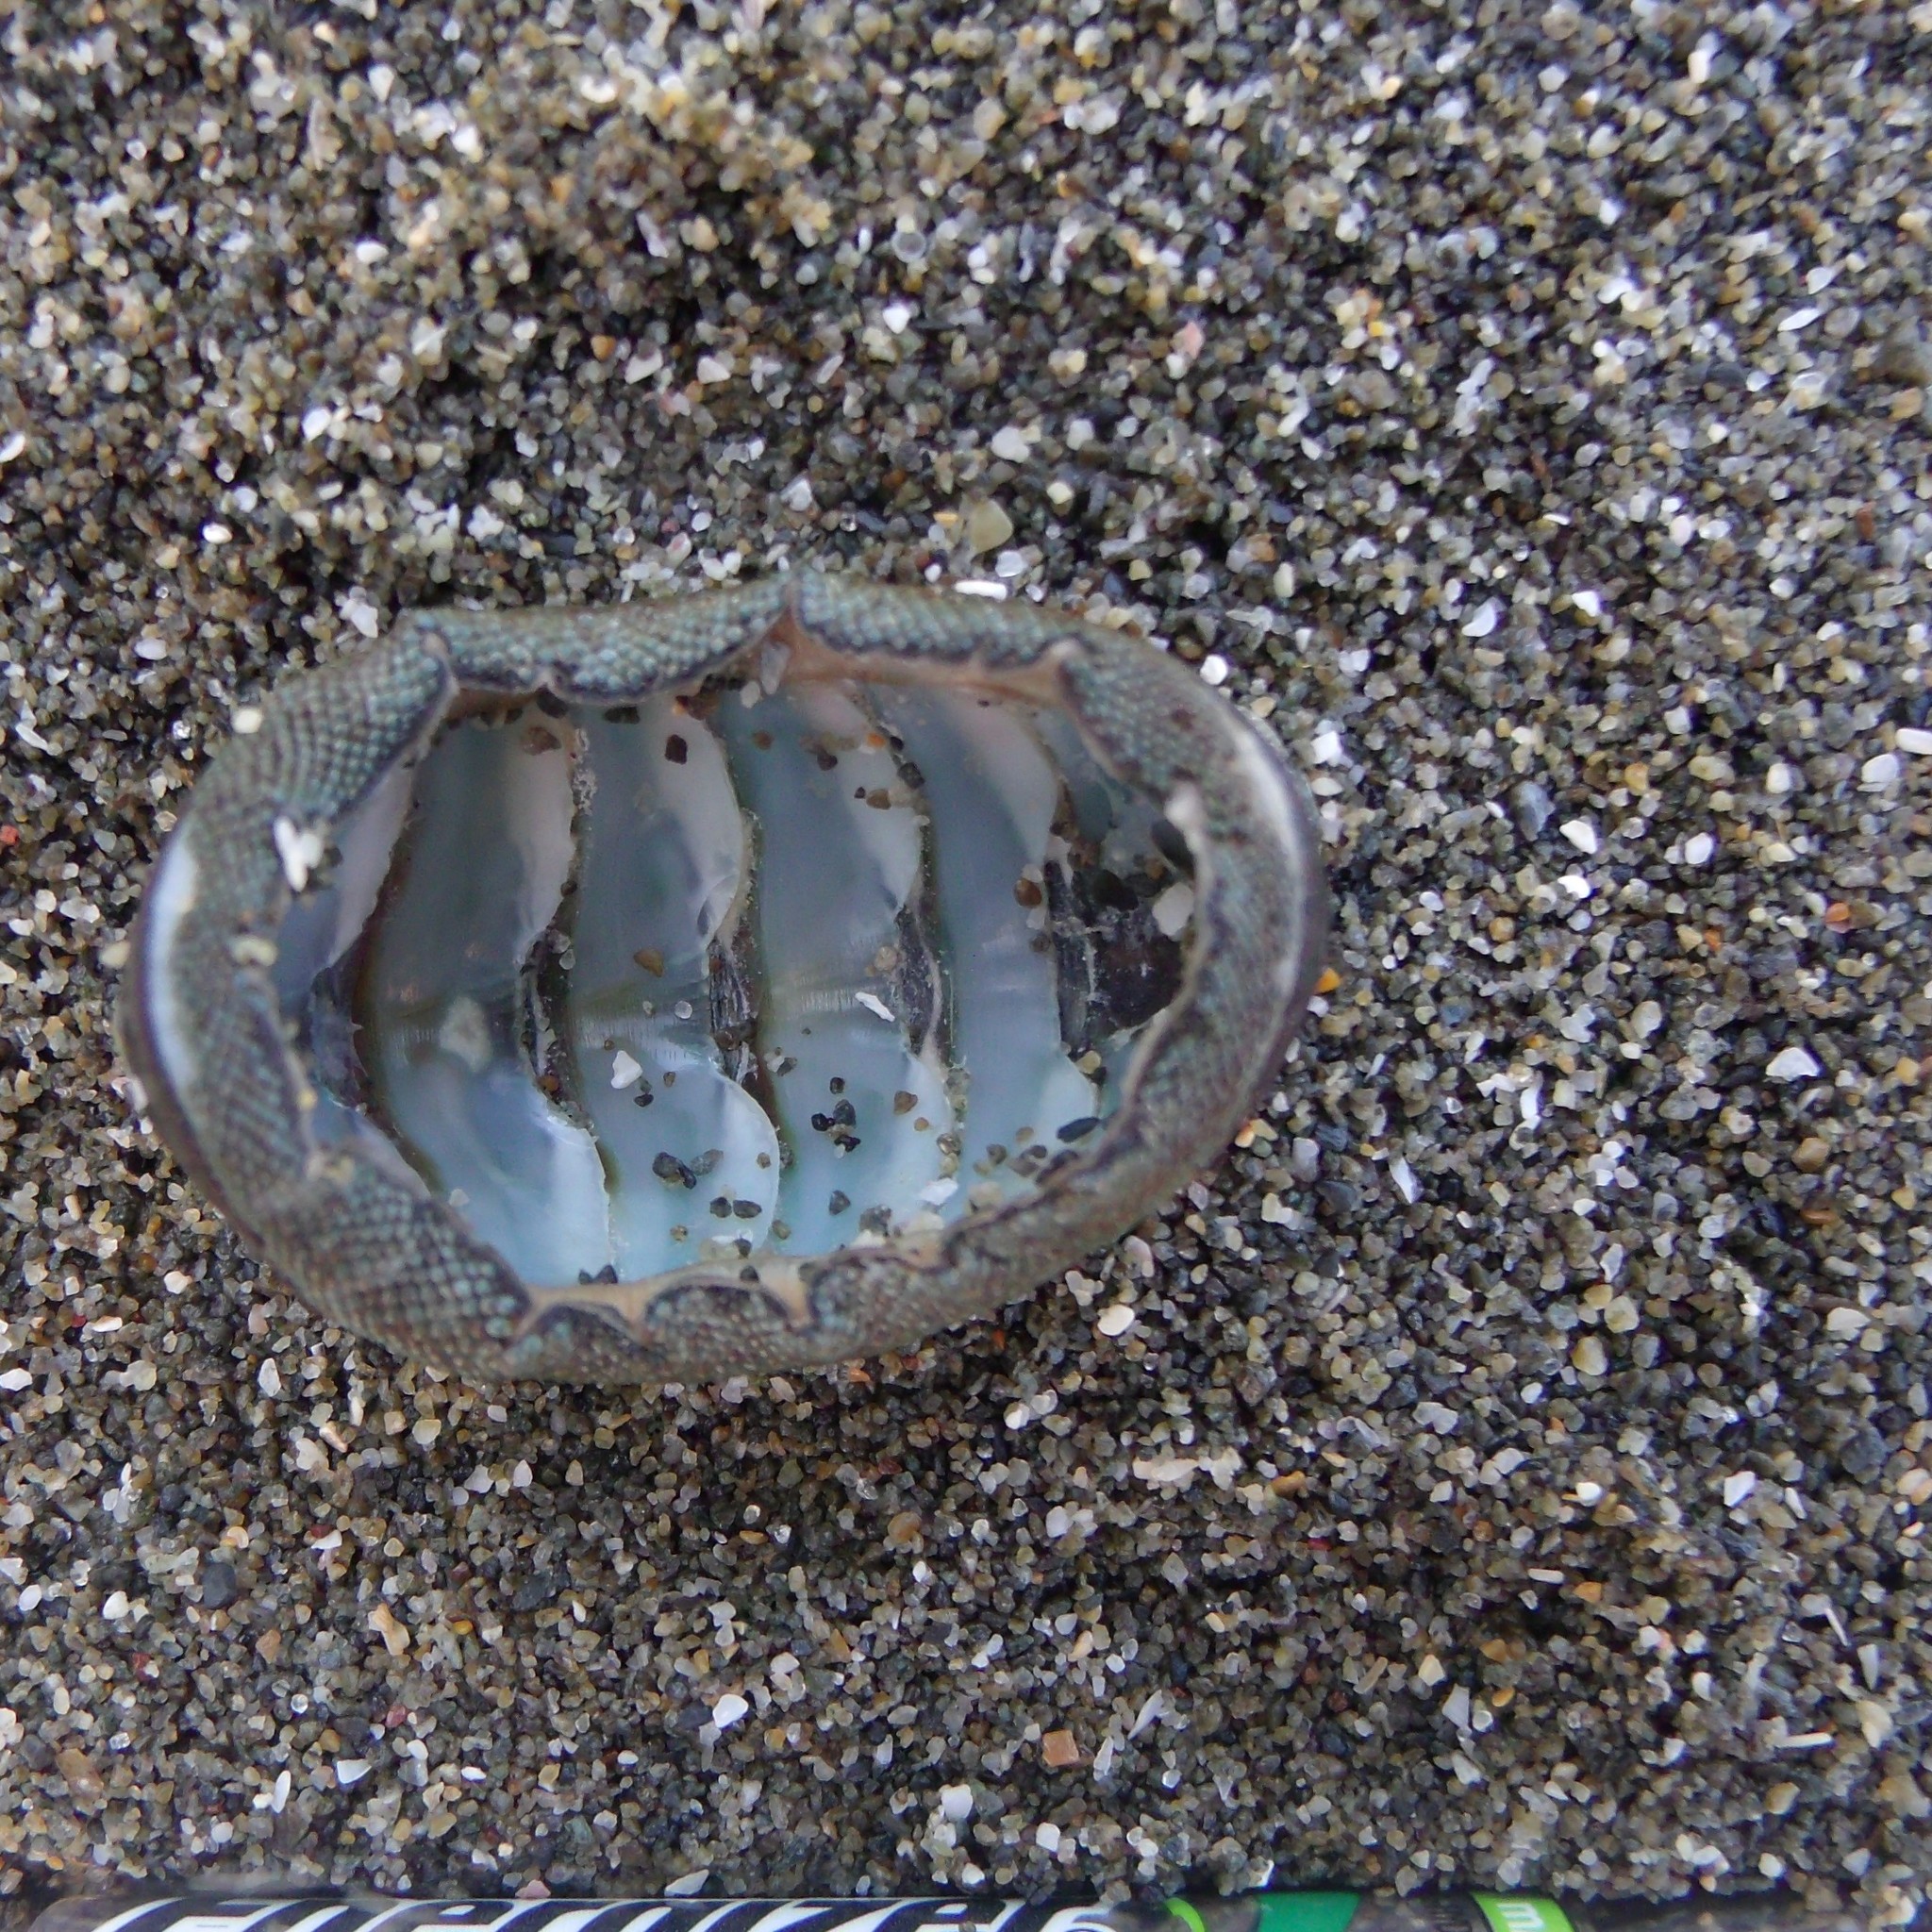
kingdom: Animalia
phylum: Mollusca
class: Polyplacophora
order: Chitonida
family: Chitonidae
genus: Chiton
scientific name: Chiton glaucus
